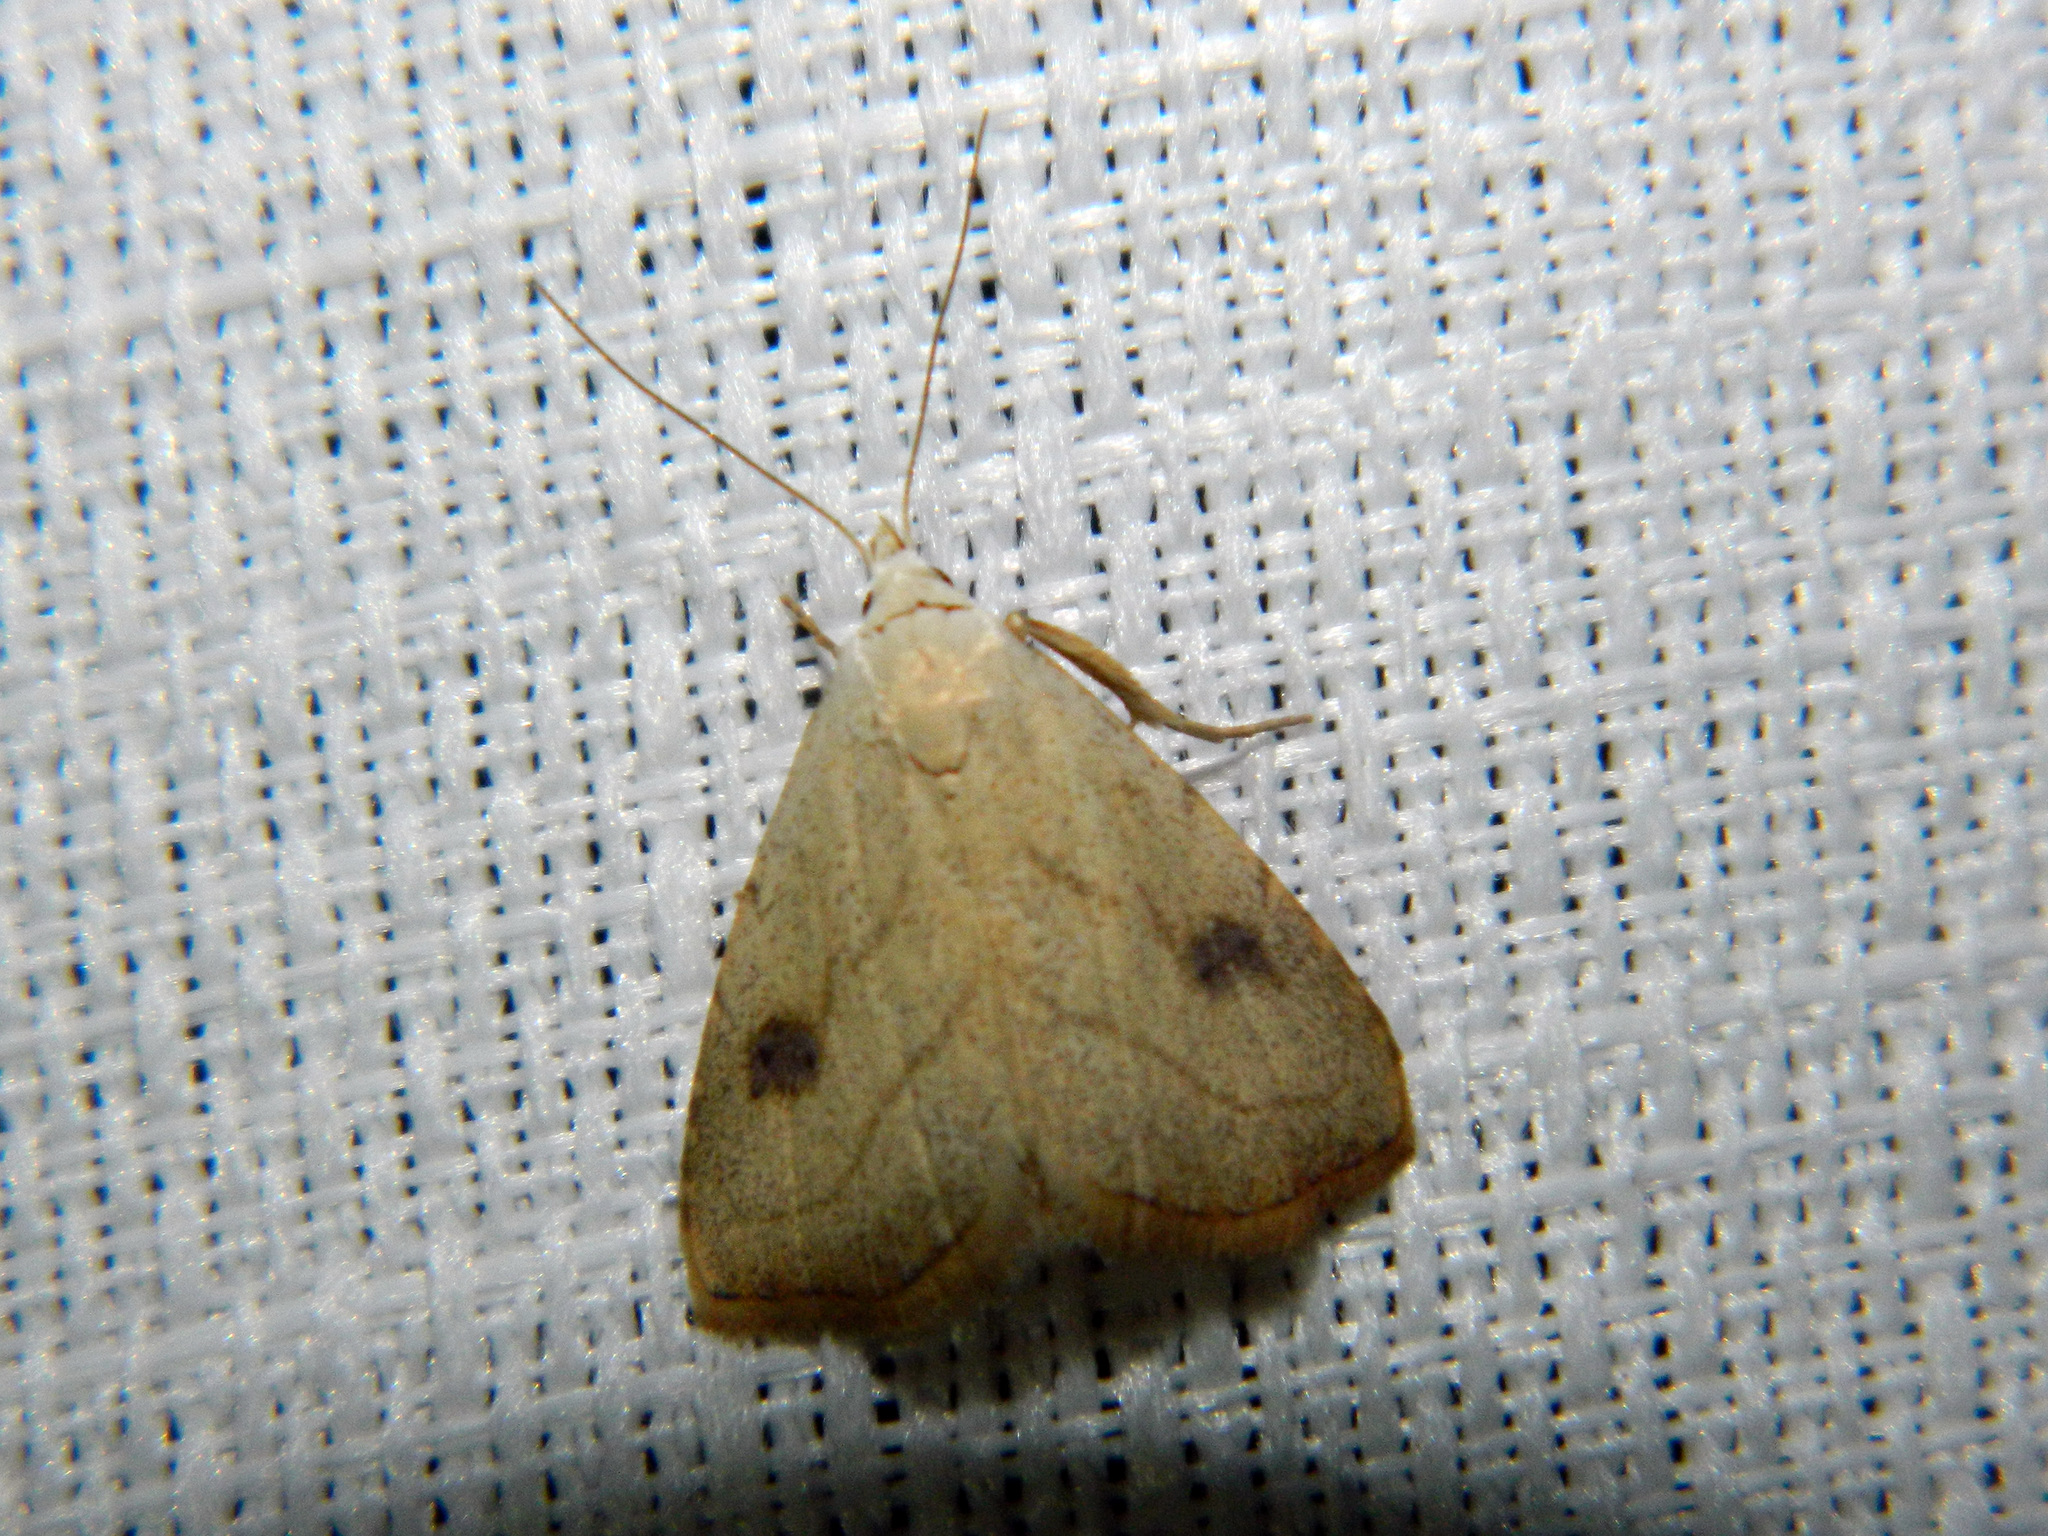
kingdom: Animalia
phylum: Arthropoda
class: Insecta
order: Lepidoptera
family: Erebidae
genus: Rivula
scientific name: Rivula propinqualis
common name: Spotted grass moth
